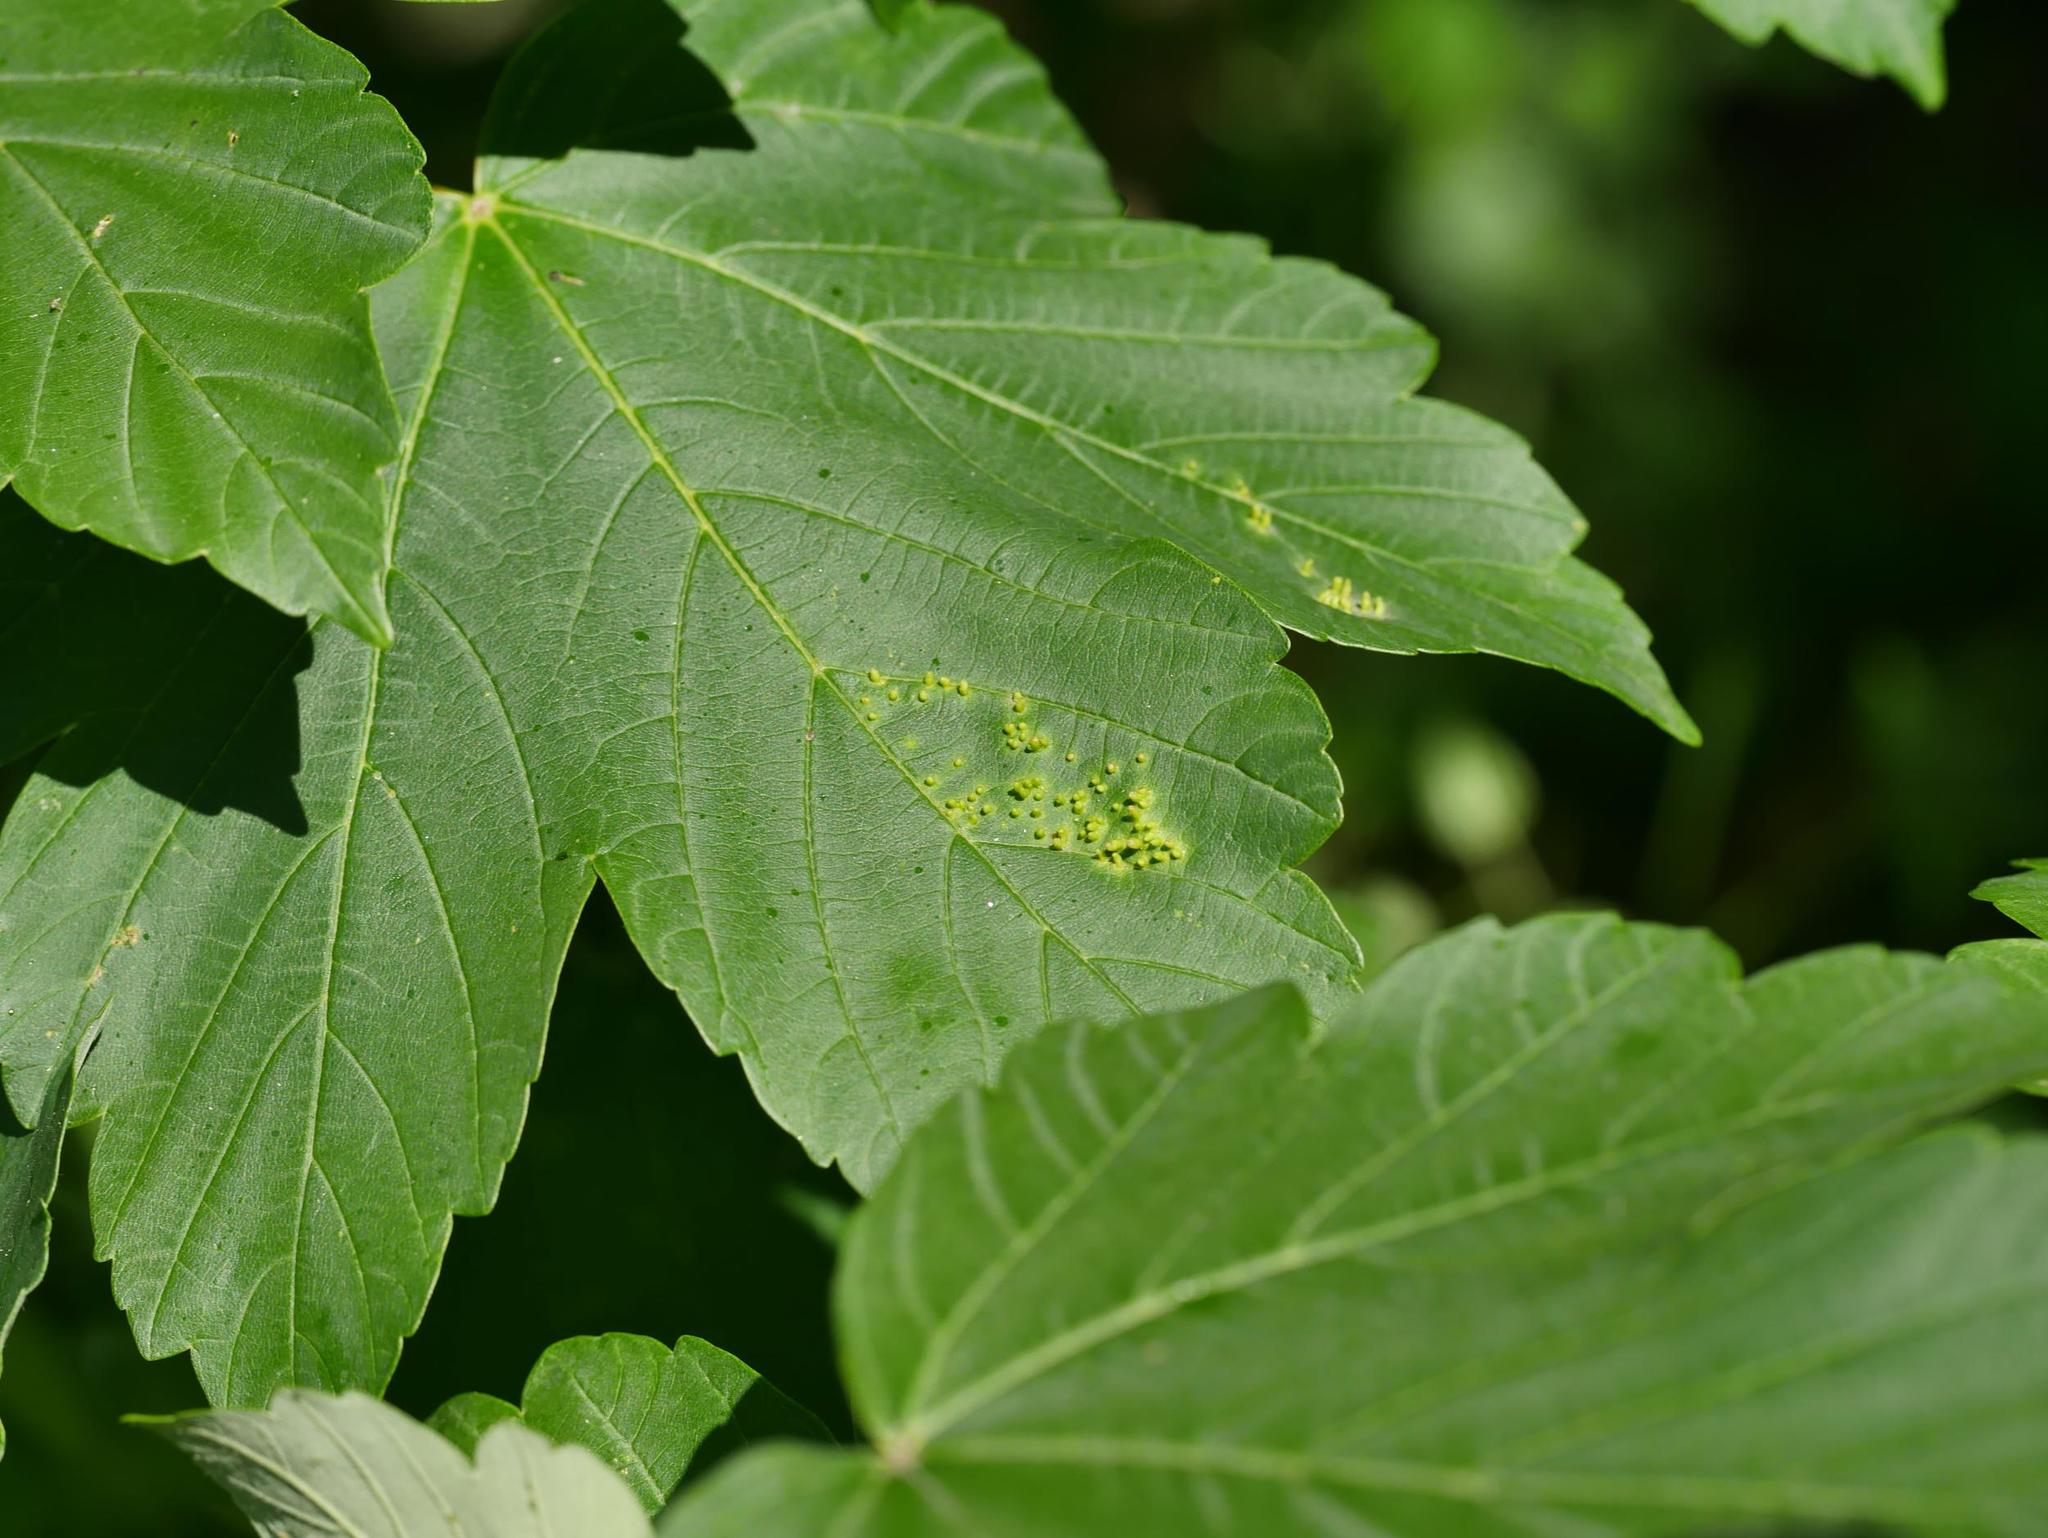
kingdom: Animalia
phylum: Arthropoda
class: Arachnida
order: Trombidiformes
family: Eriophyidae
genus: Aceria
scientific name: Aceria cephaloneus
